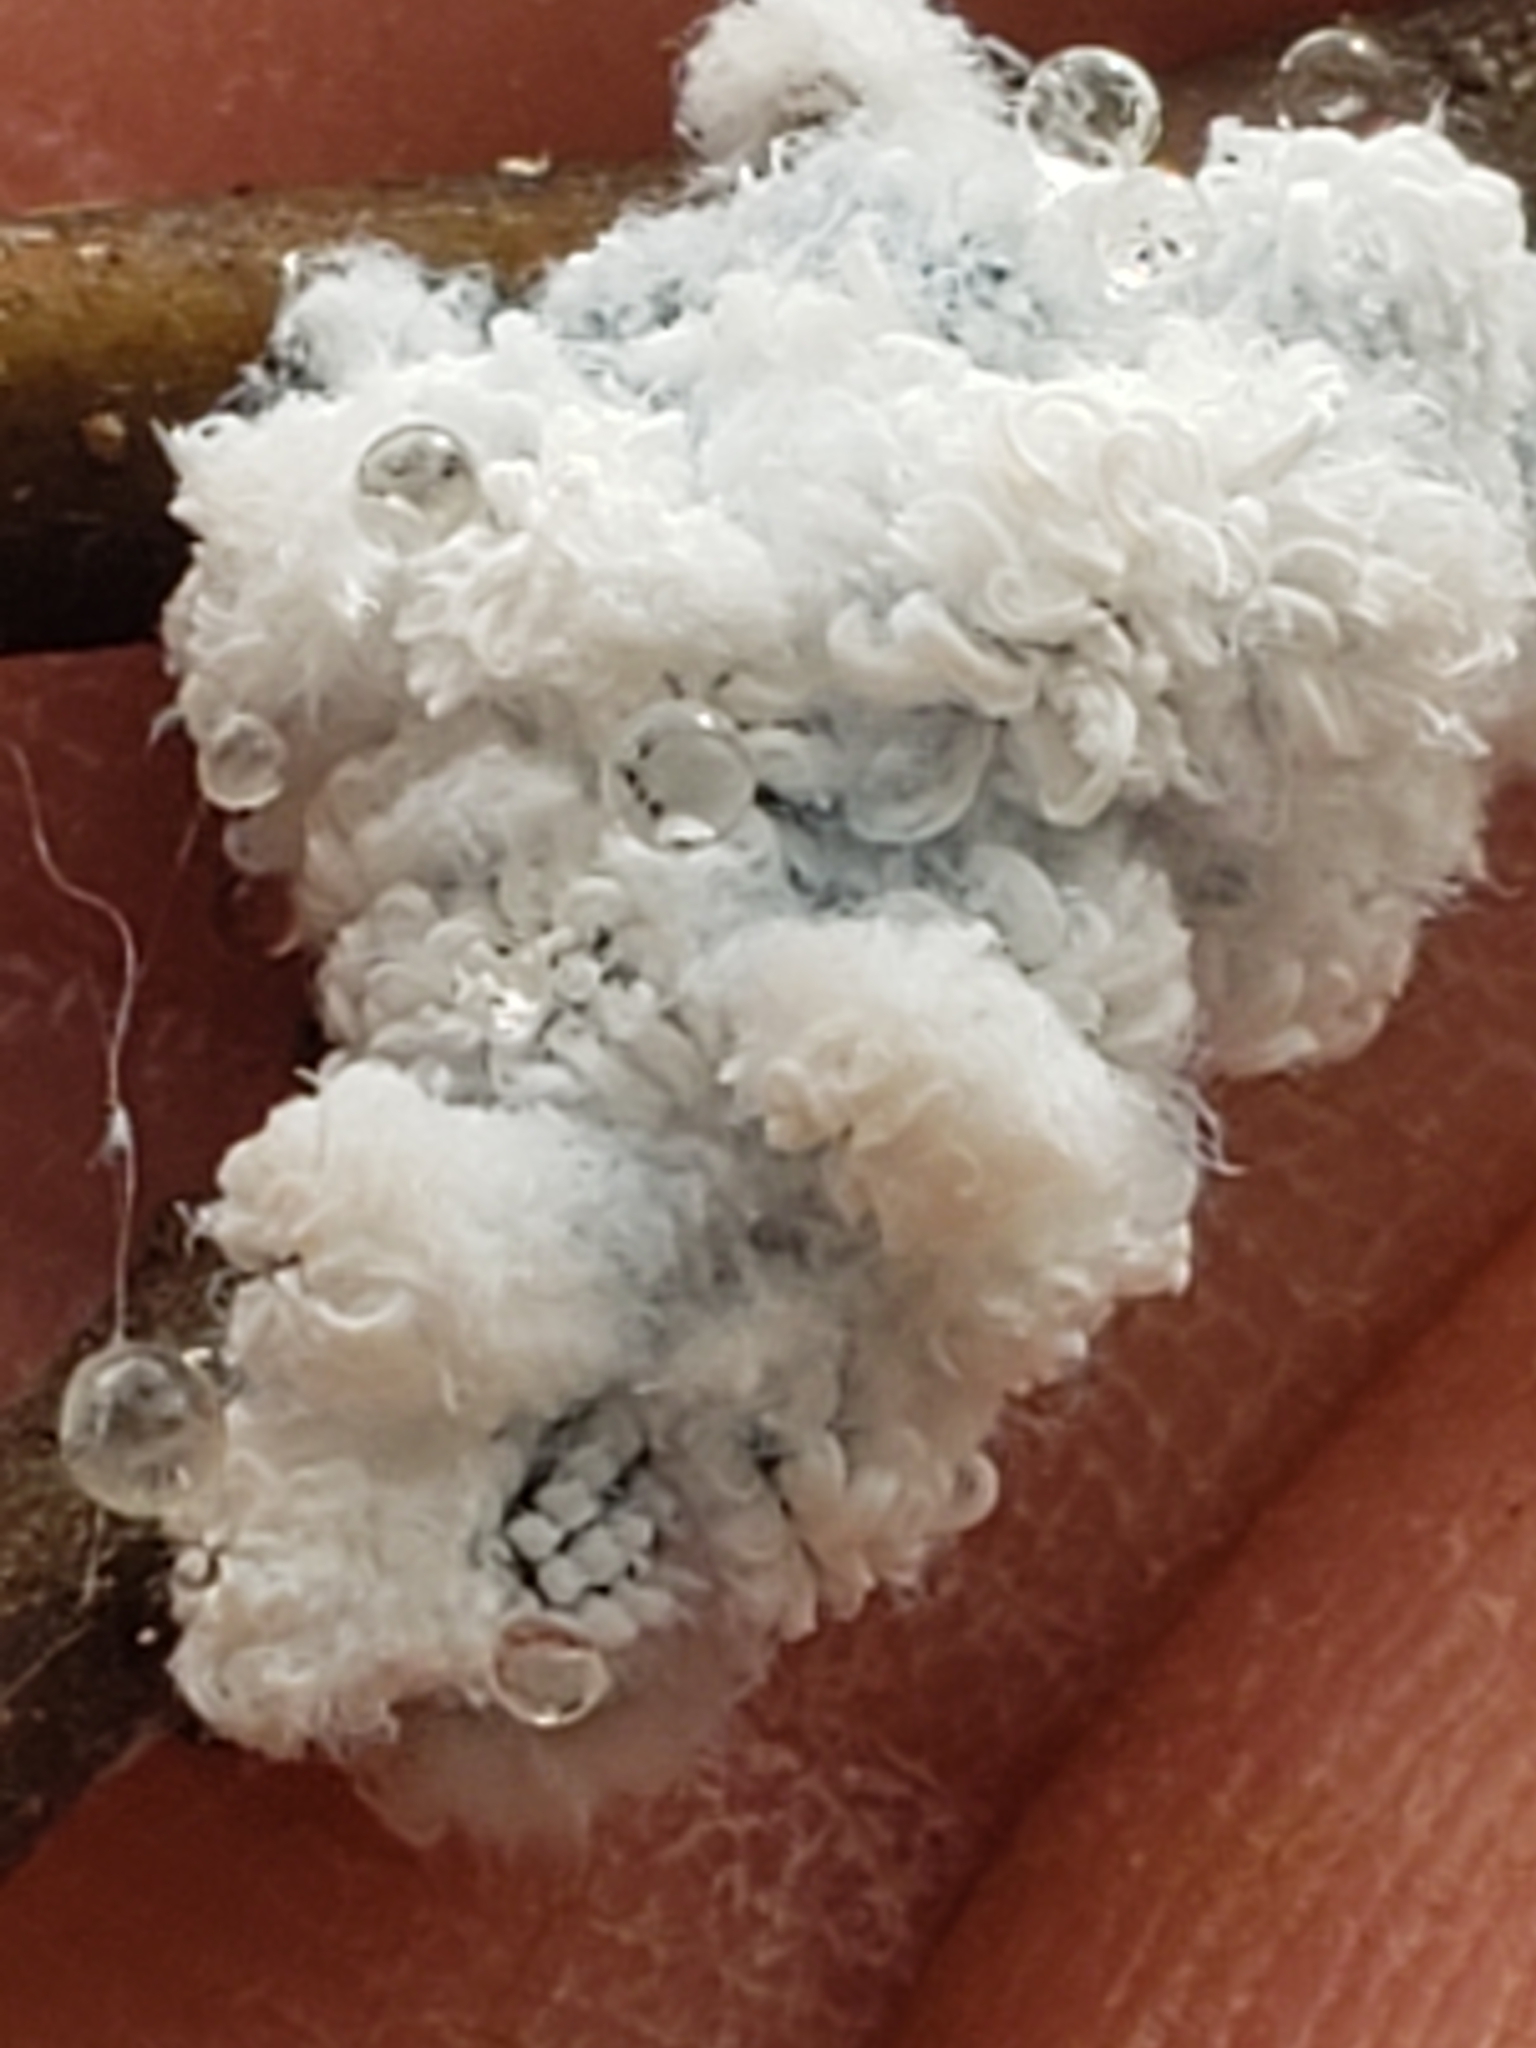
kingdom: Animalia
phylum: Arthropoda
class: Insecta
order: Hemiptera
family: Aphididae
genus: Prociphilus
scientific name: Prociphilus tessellatus
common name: Woolly alder aphid
